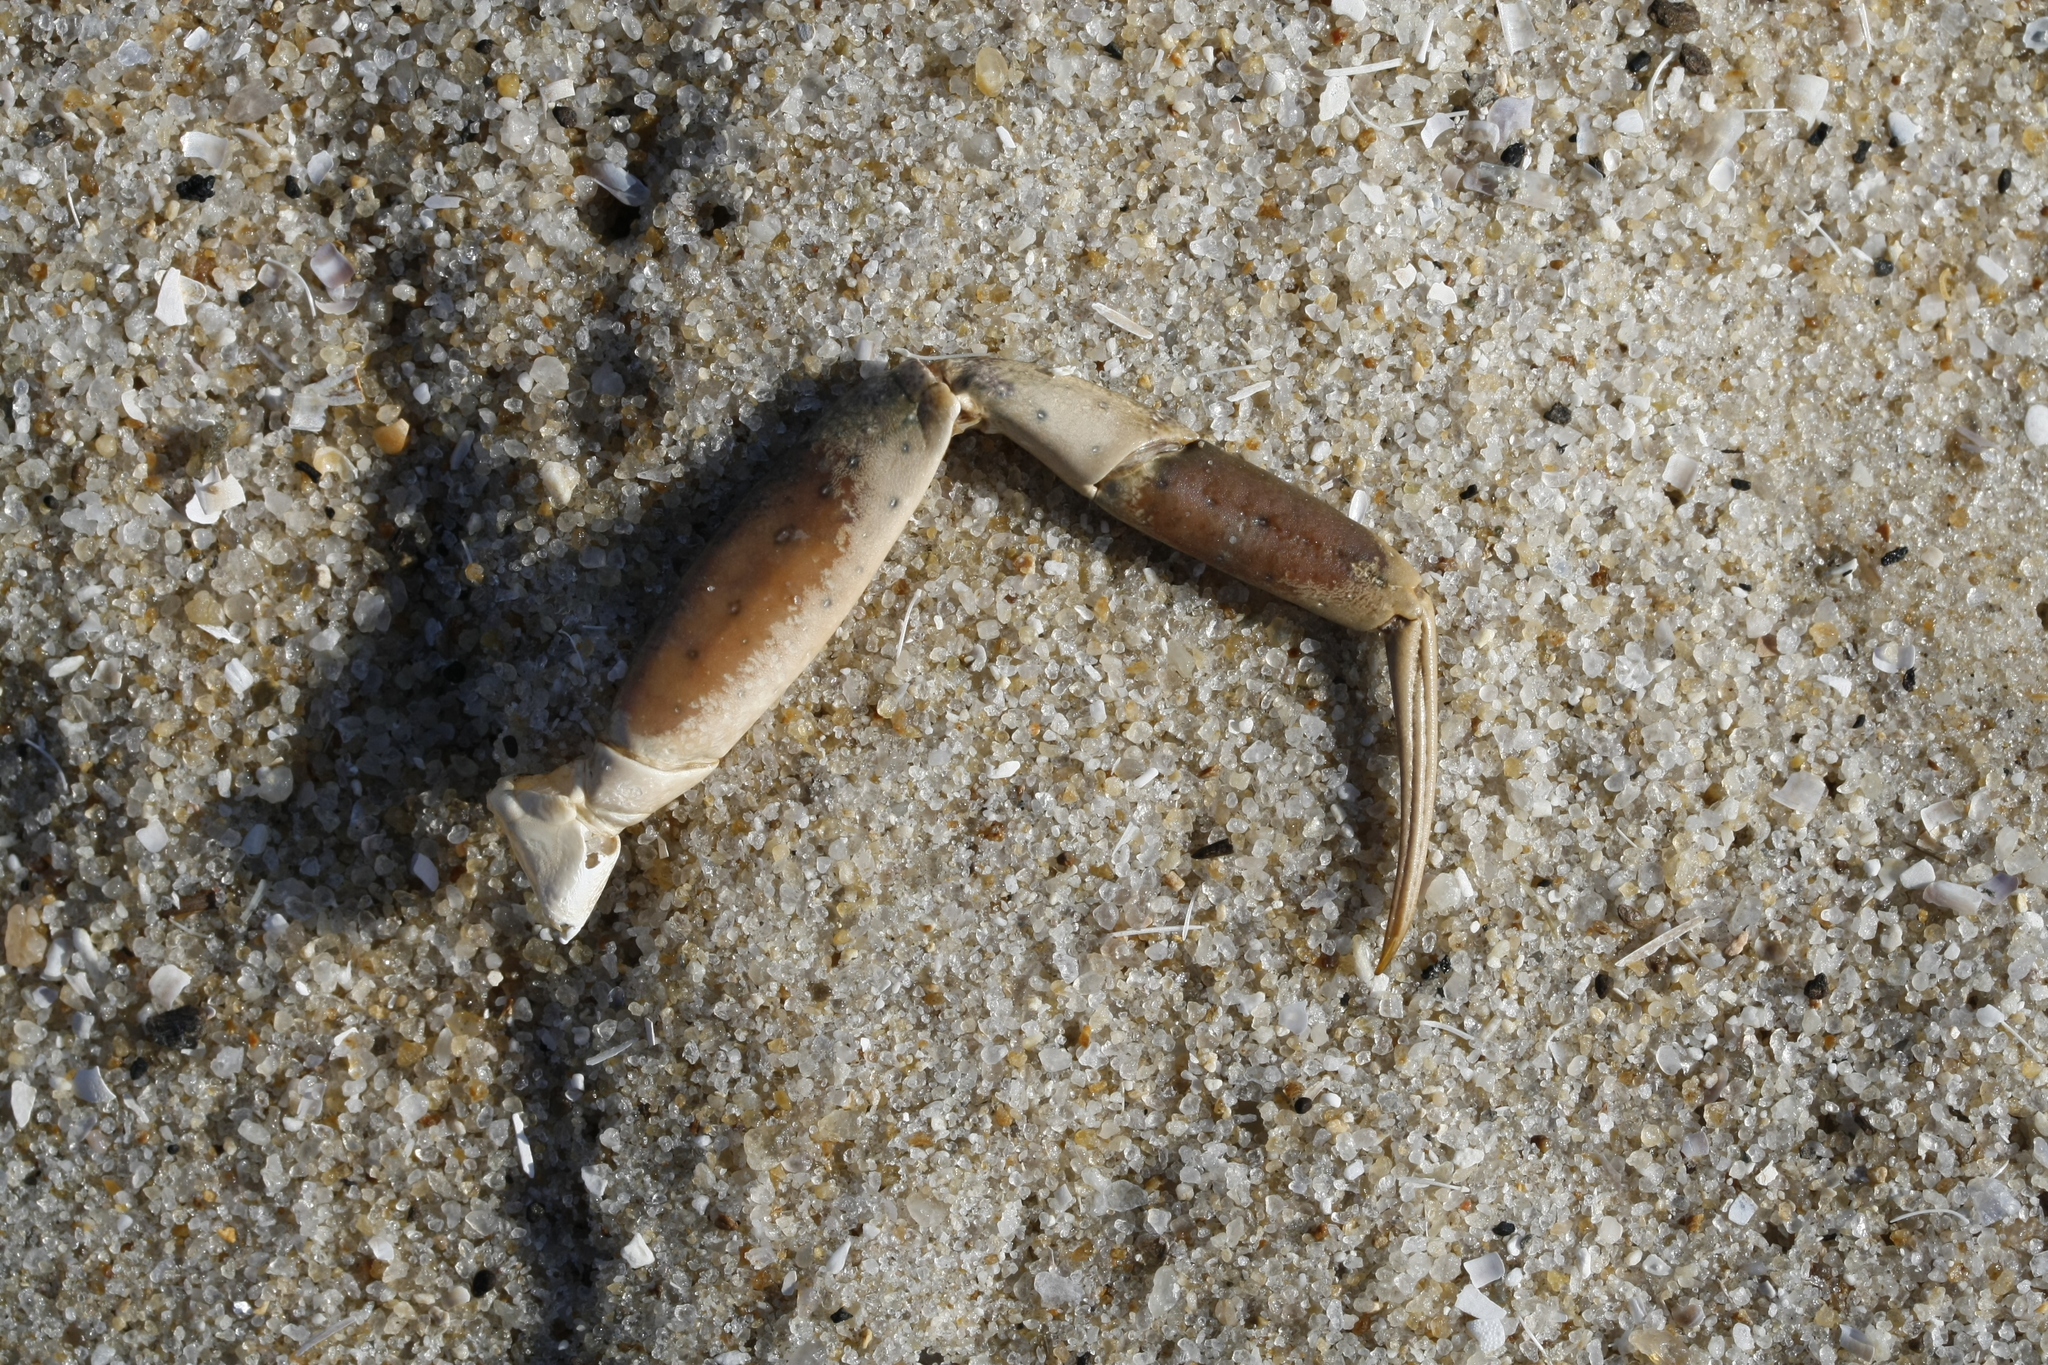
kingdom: Animalia
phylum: Arthropoda
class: Malacostraca
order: Decapoda
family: Carcinidae
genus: Carcinus
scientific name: Carcinus maenas
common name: European green crab
